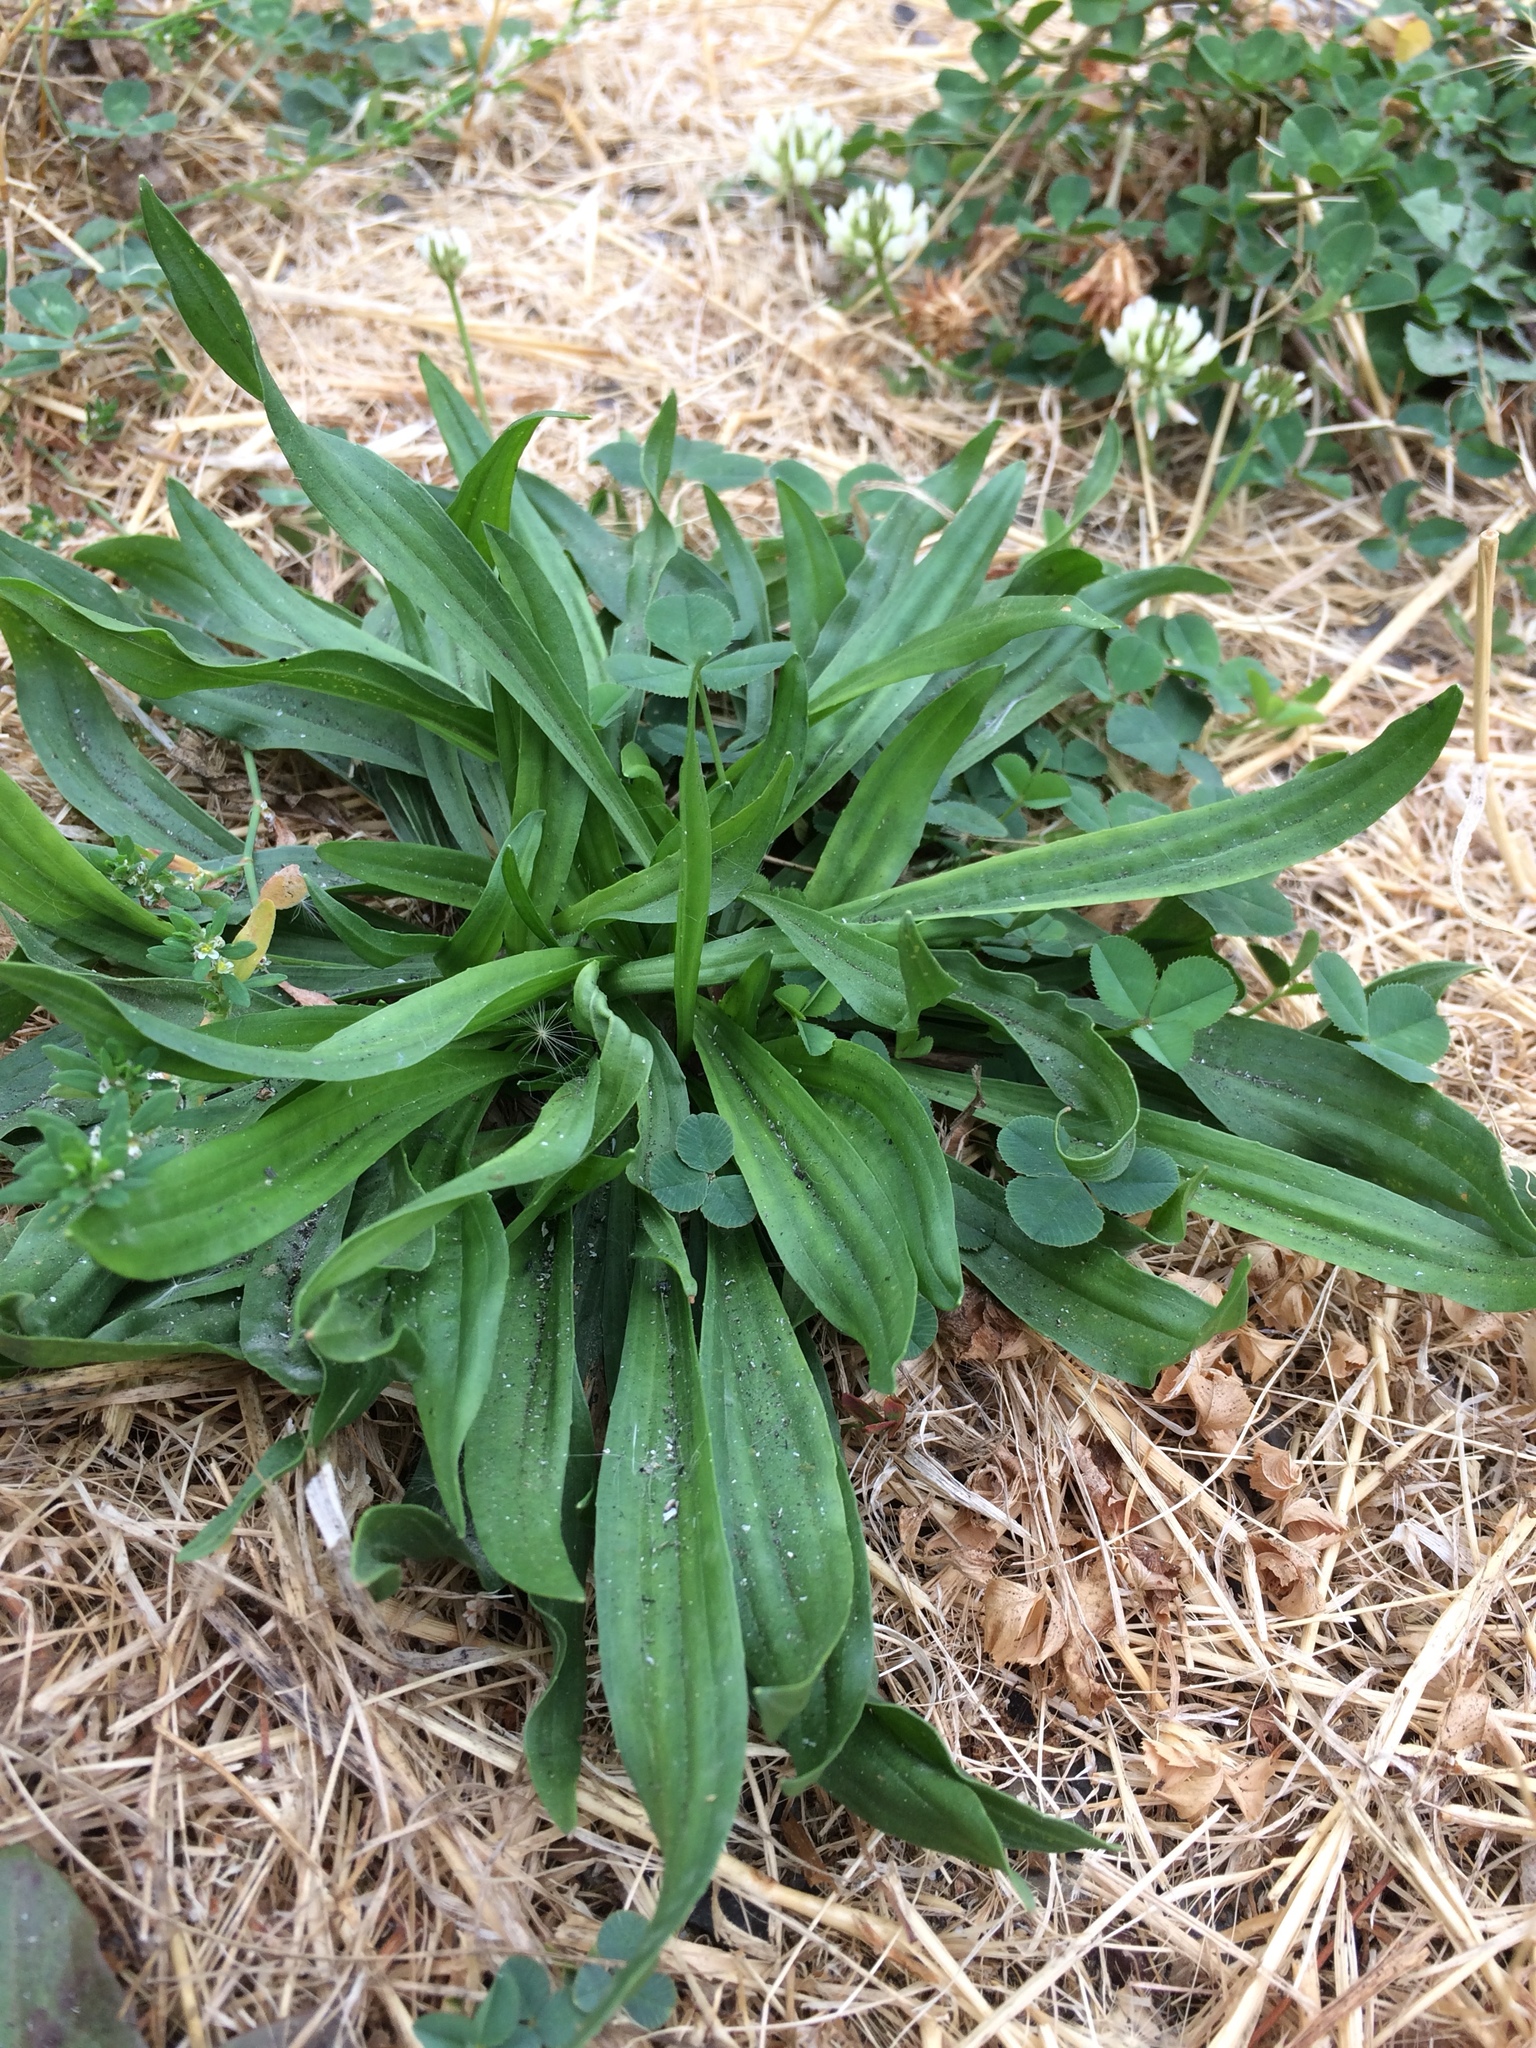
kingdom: Plantae
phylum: Tracheophyta
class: Magnoliopsida
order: Lamiales
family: Plantaginaceae
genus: Plantago
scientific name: Plantago lanceolata
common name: Ribwort plantain
